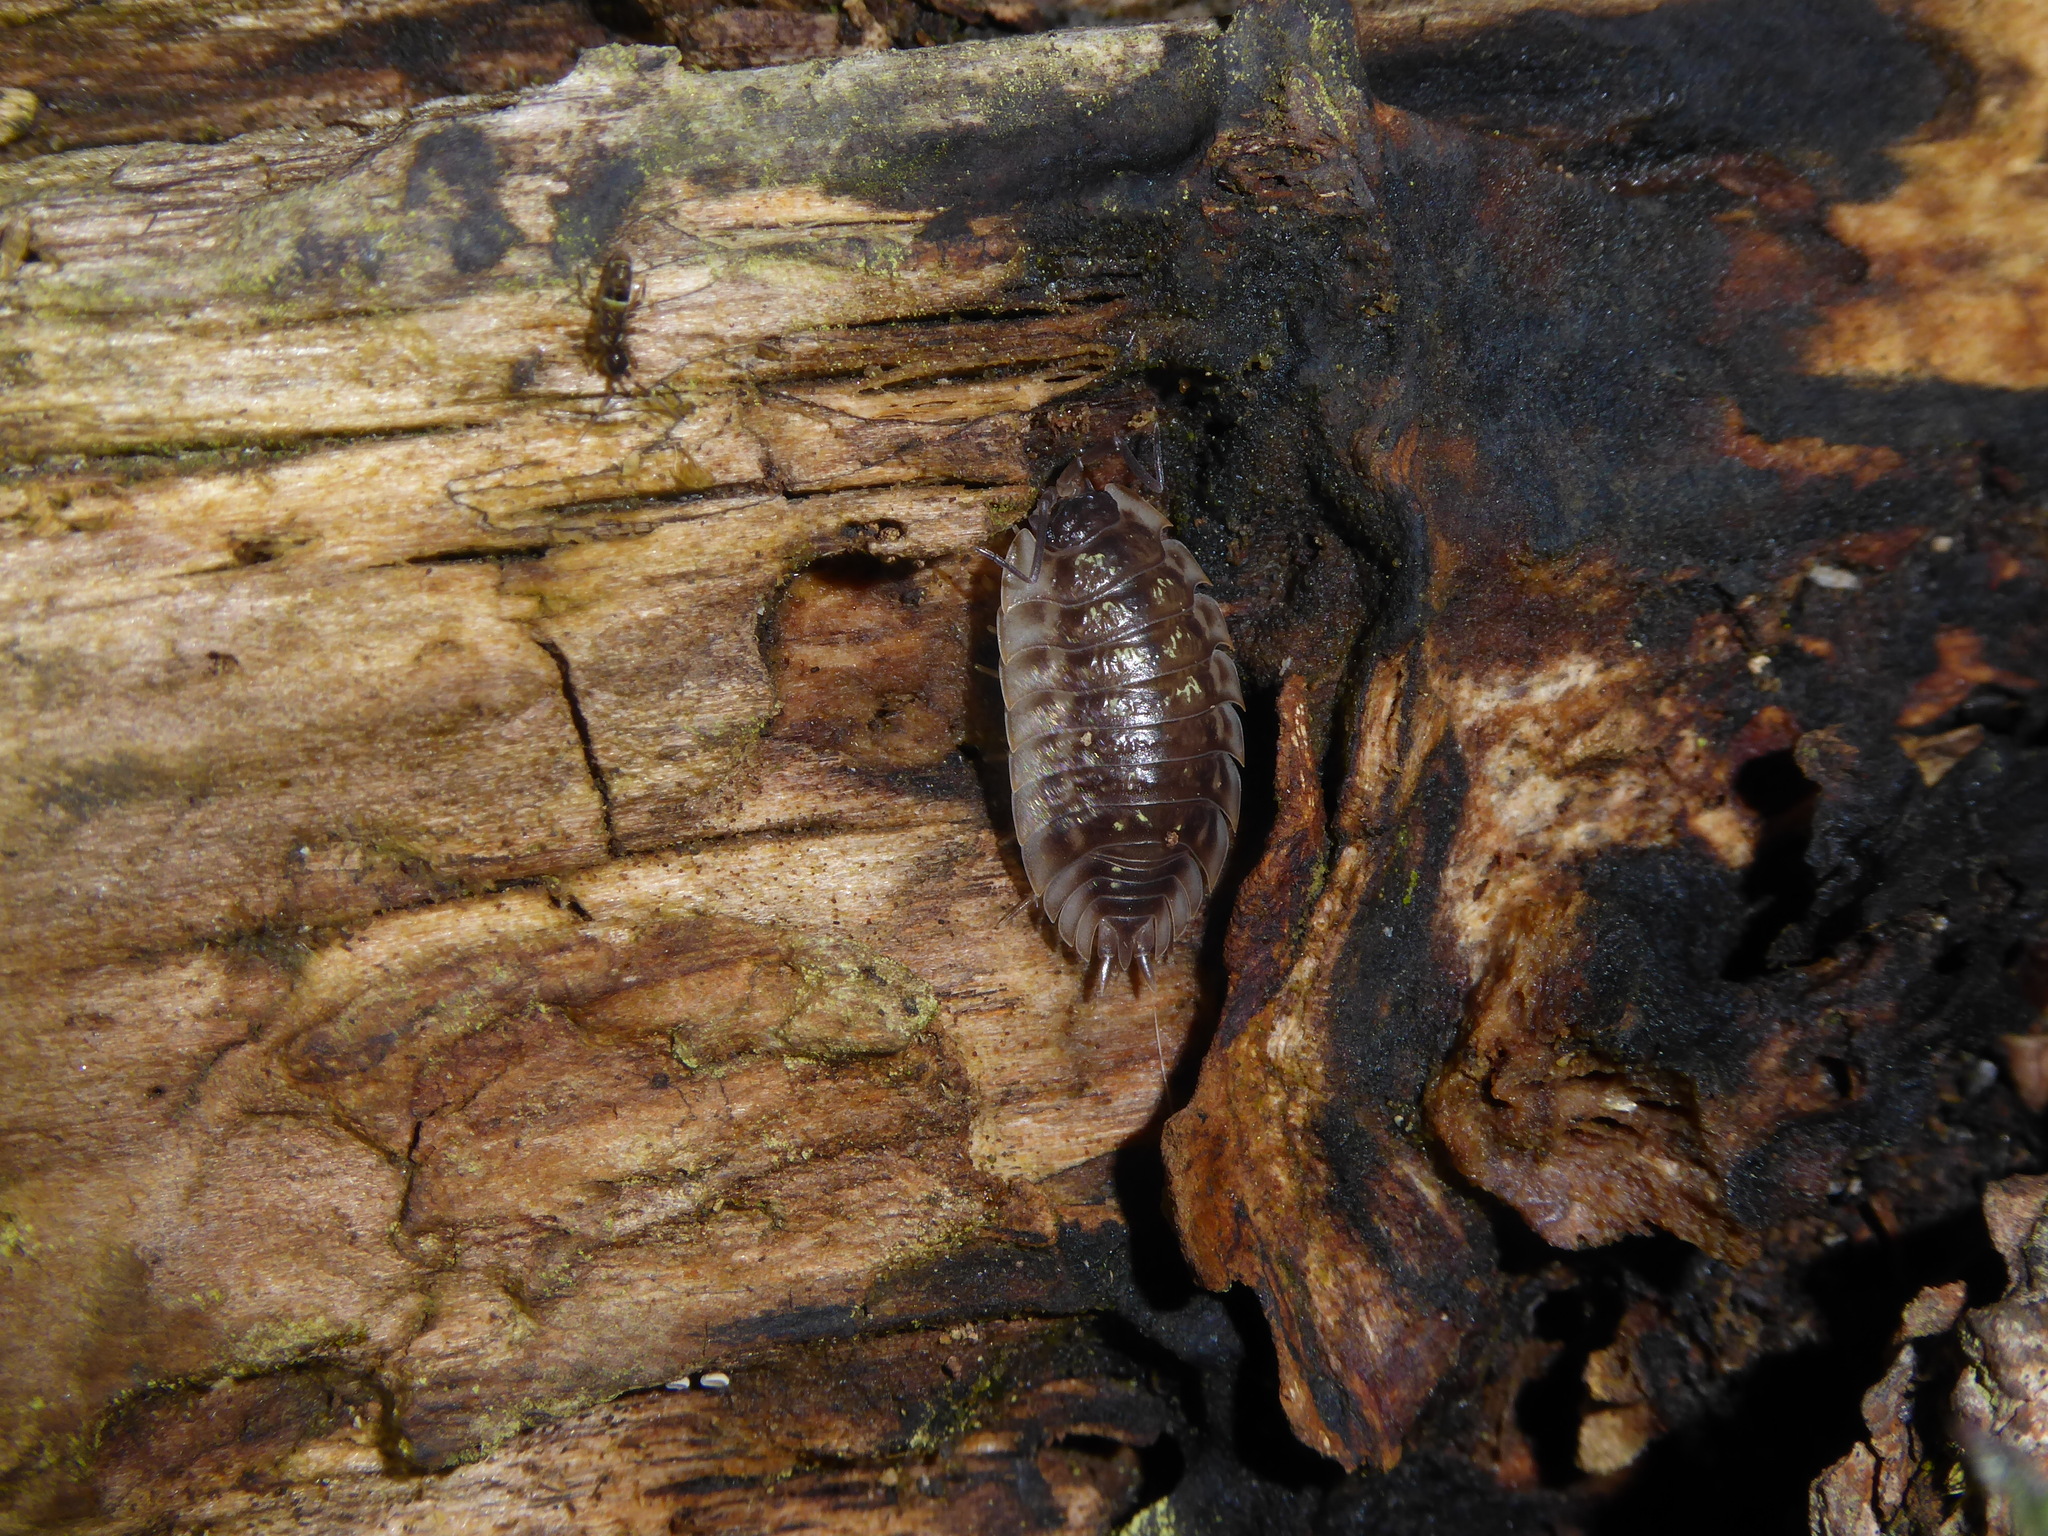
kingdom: Animalia
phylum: Arthropoda
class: Malacostraca
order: Isopoda
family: Oniscidae
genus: Oniscus
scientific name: Oniscus asellus
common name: Common shiny woodlouse
